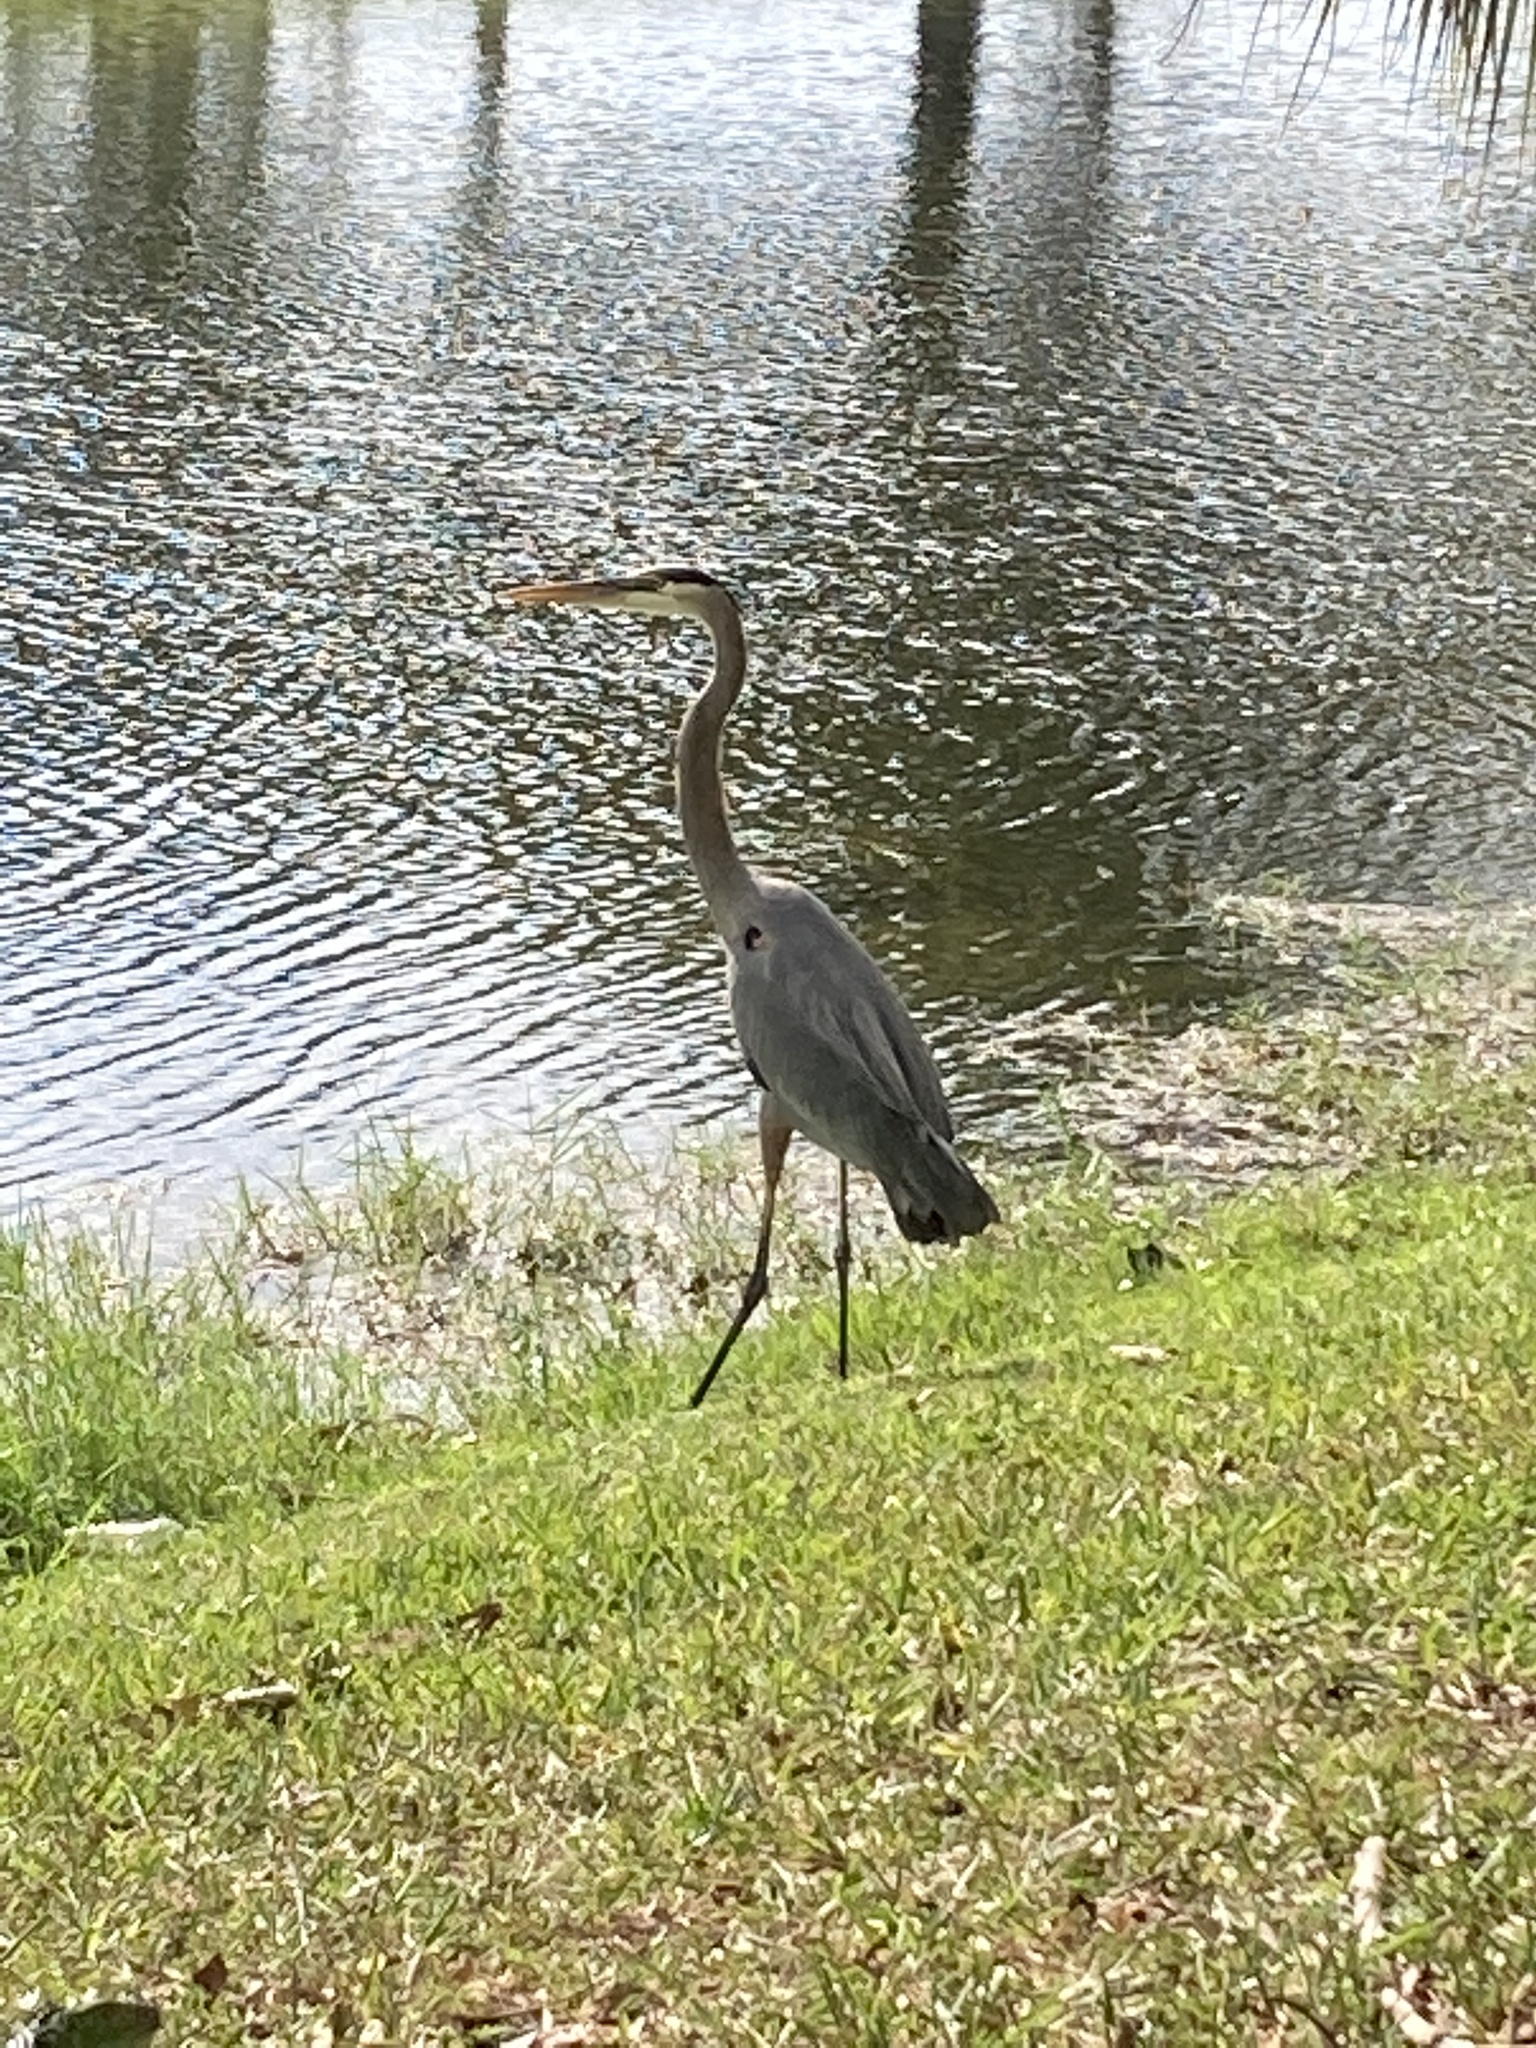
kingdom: Animalia
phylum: Chordata
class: Aves
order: Pelecaniformes
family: Ardeidae
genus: Ardea
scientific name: Ardea herodias
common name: Great blue heron
